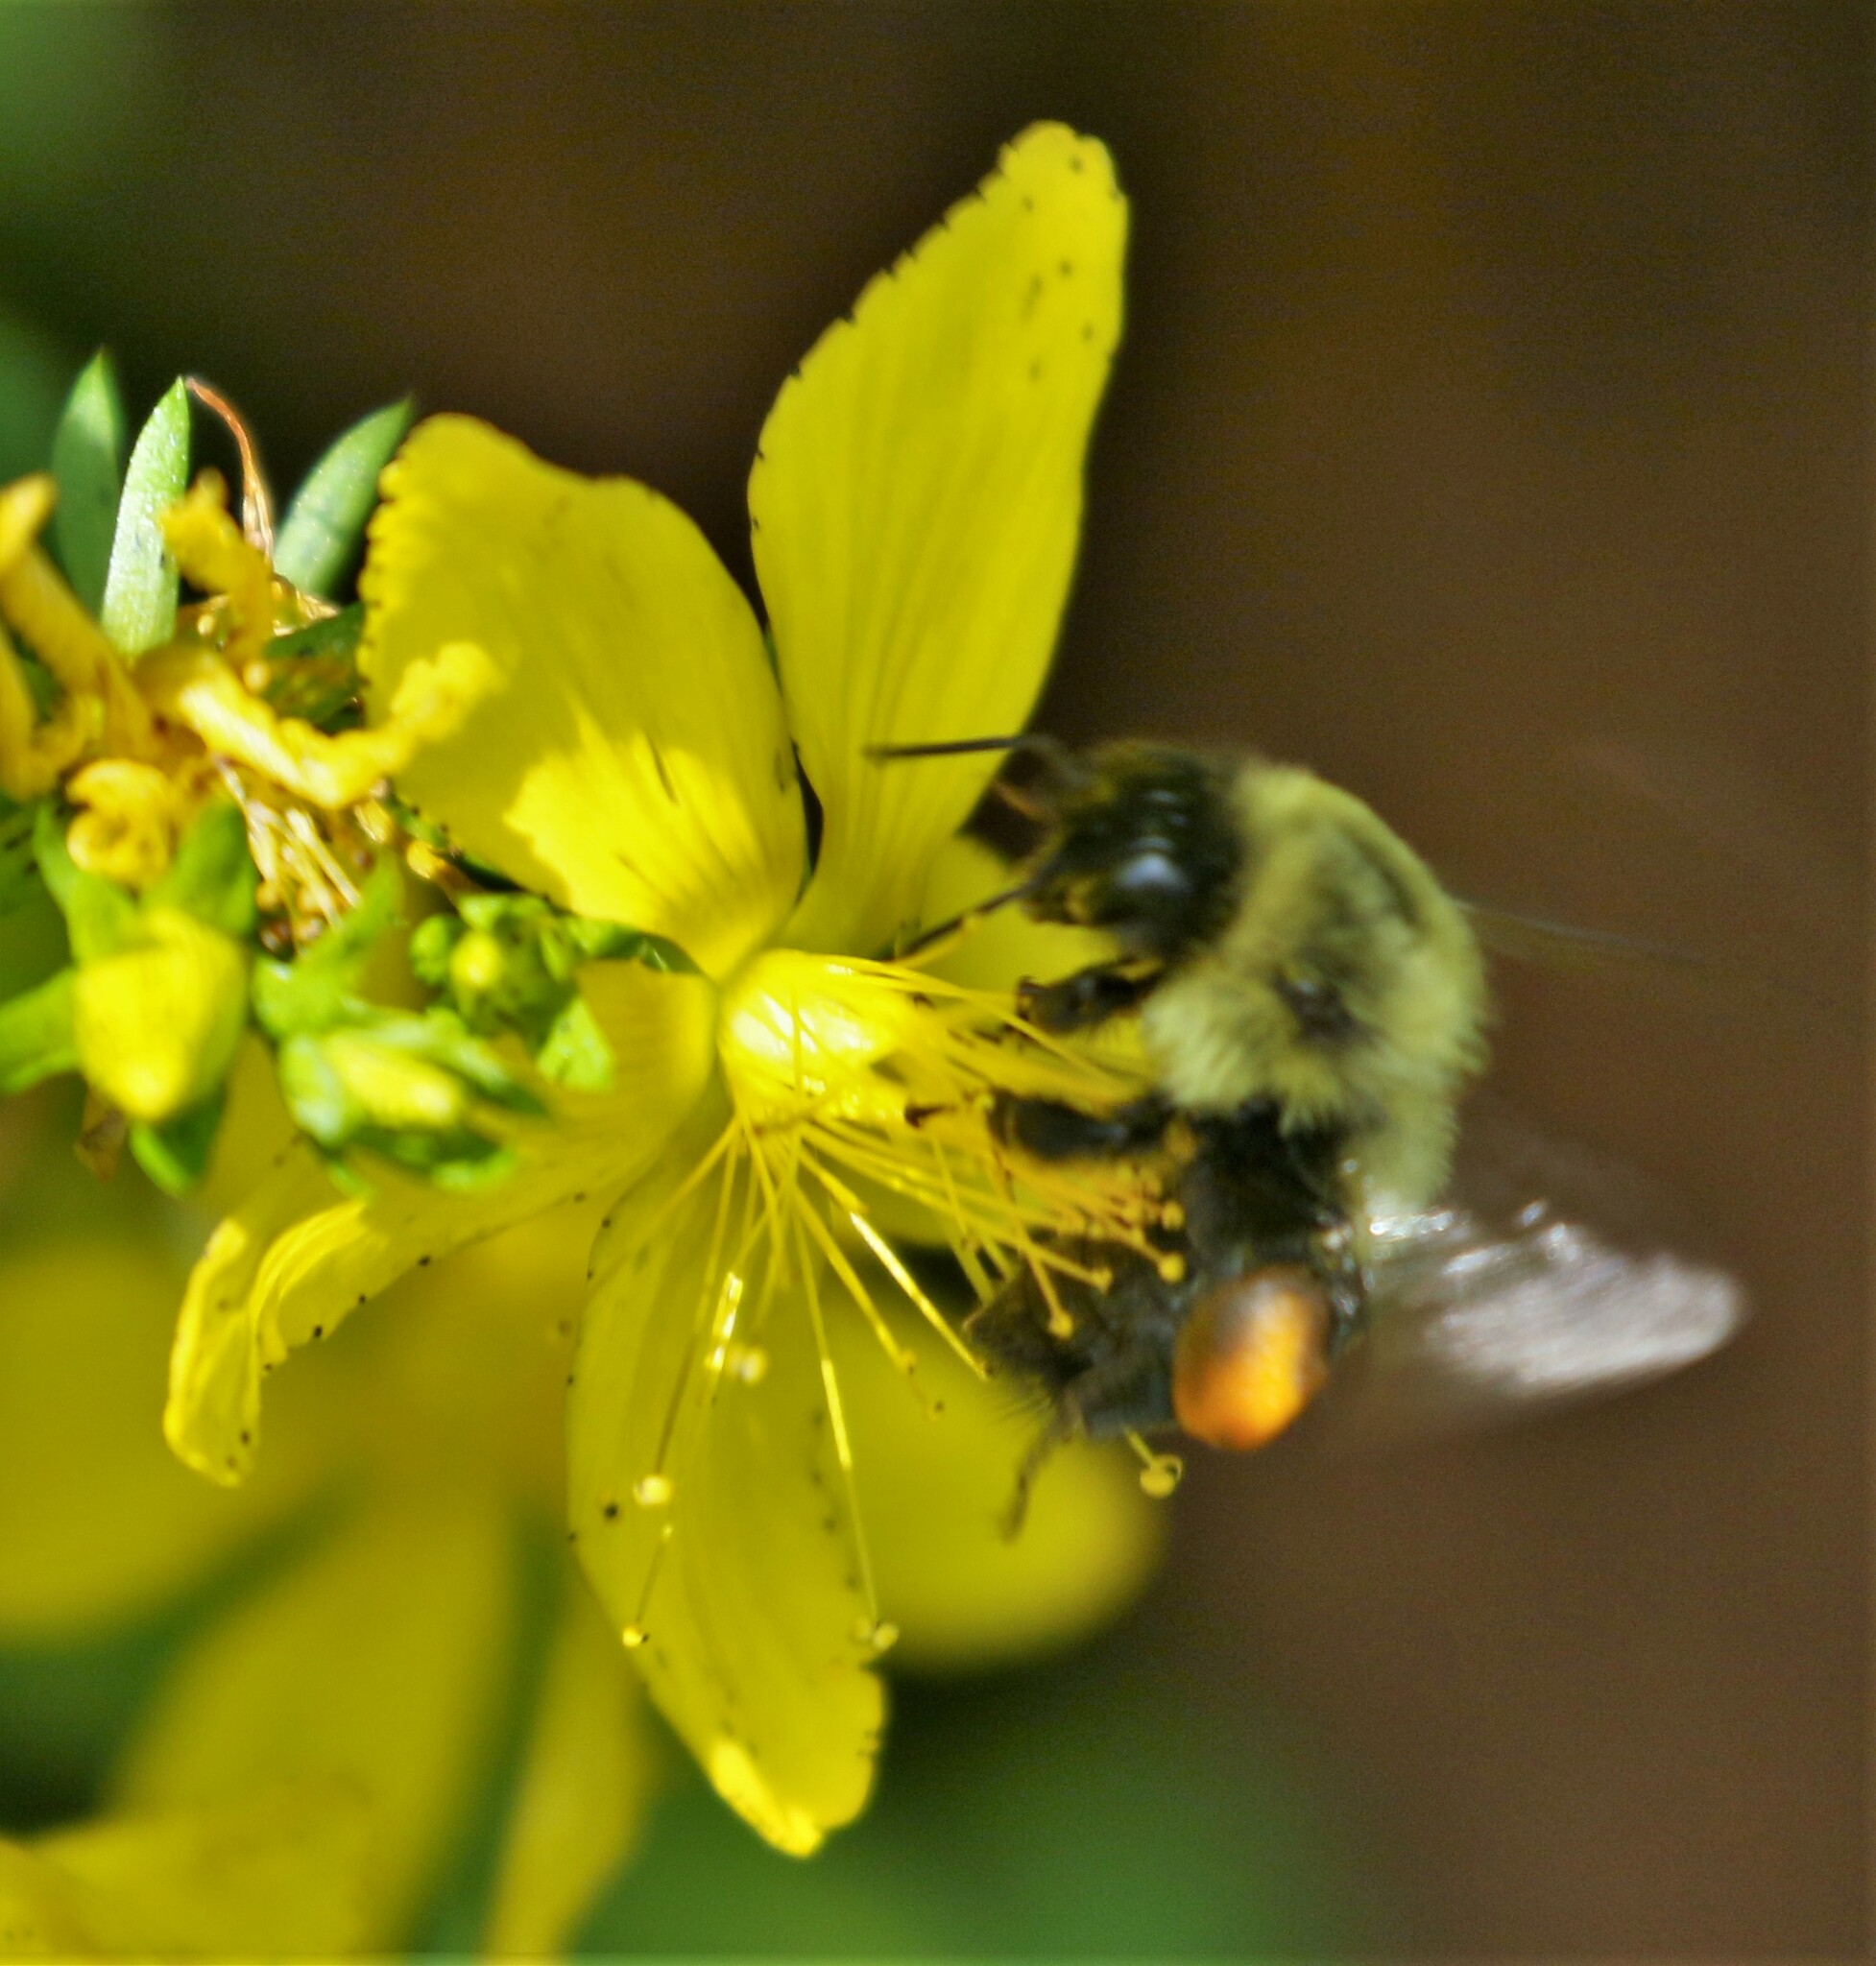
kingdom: Animalia
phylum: Arthropoda
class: Insecta
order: Hymenoptera
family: Apidae
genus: Bombus
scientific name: Bombus impatiens
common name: Common eastern bumble bee
